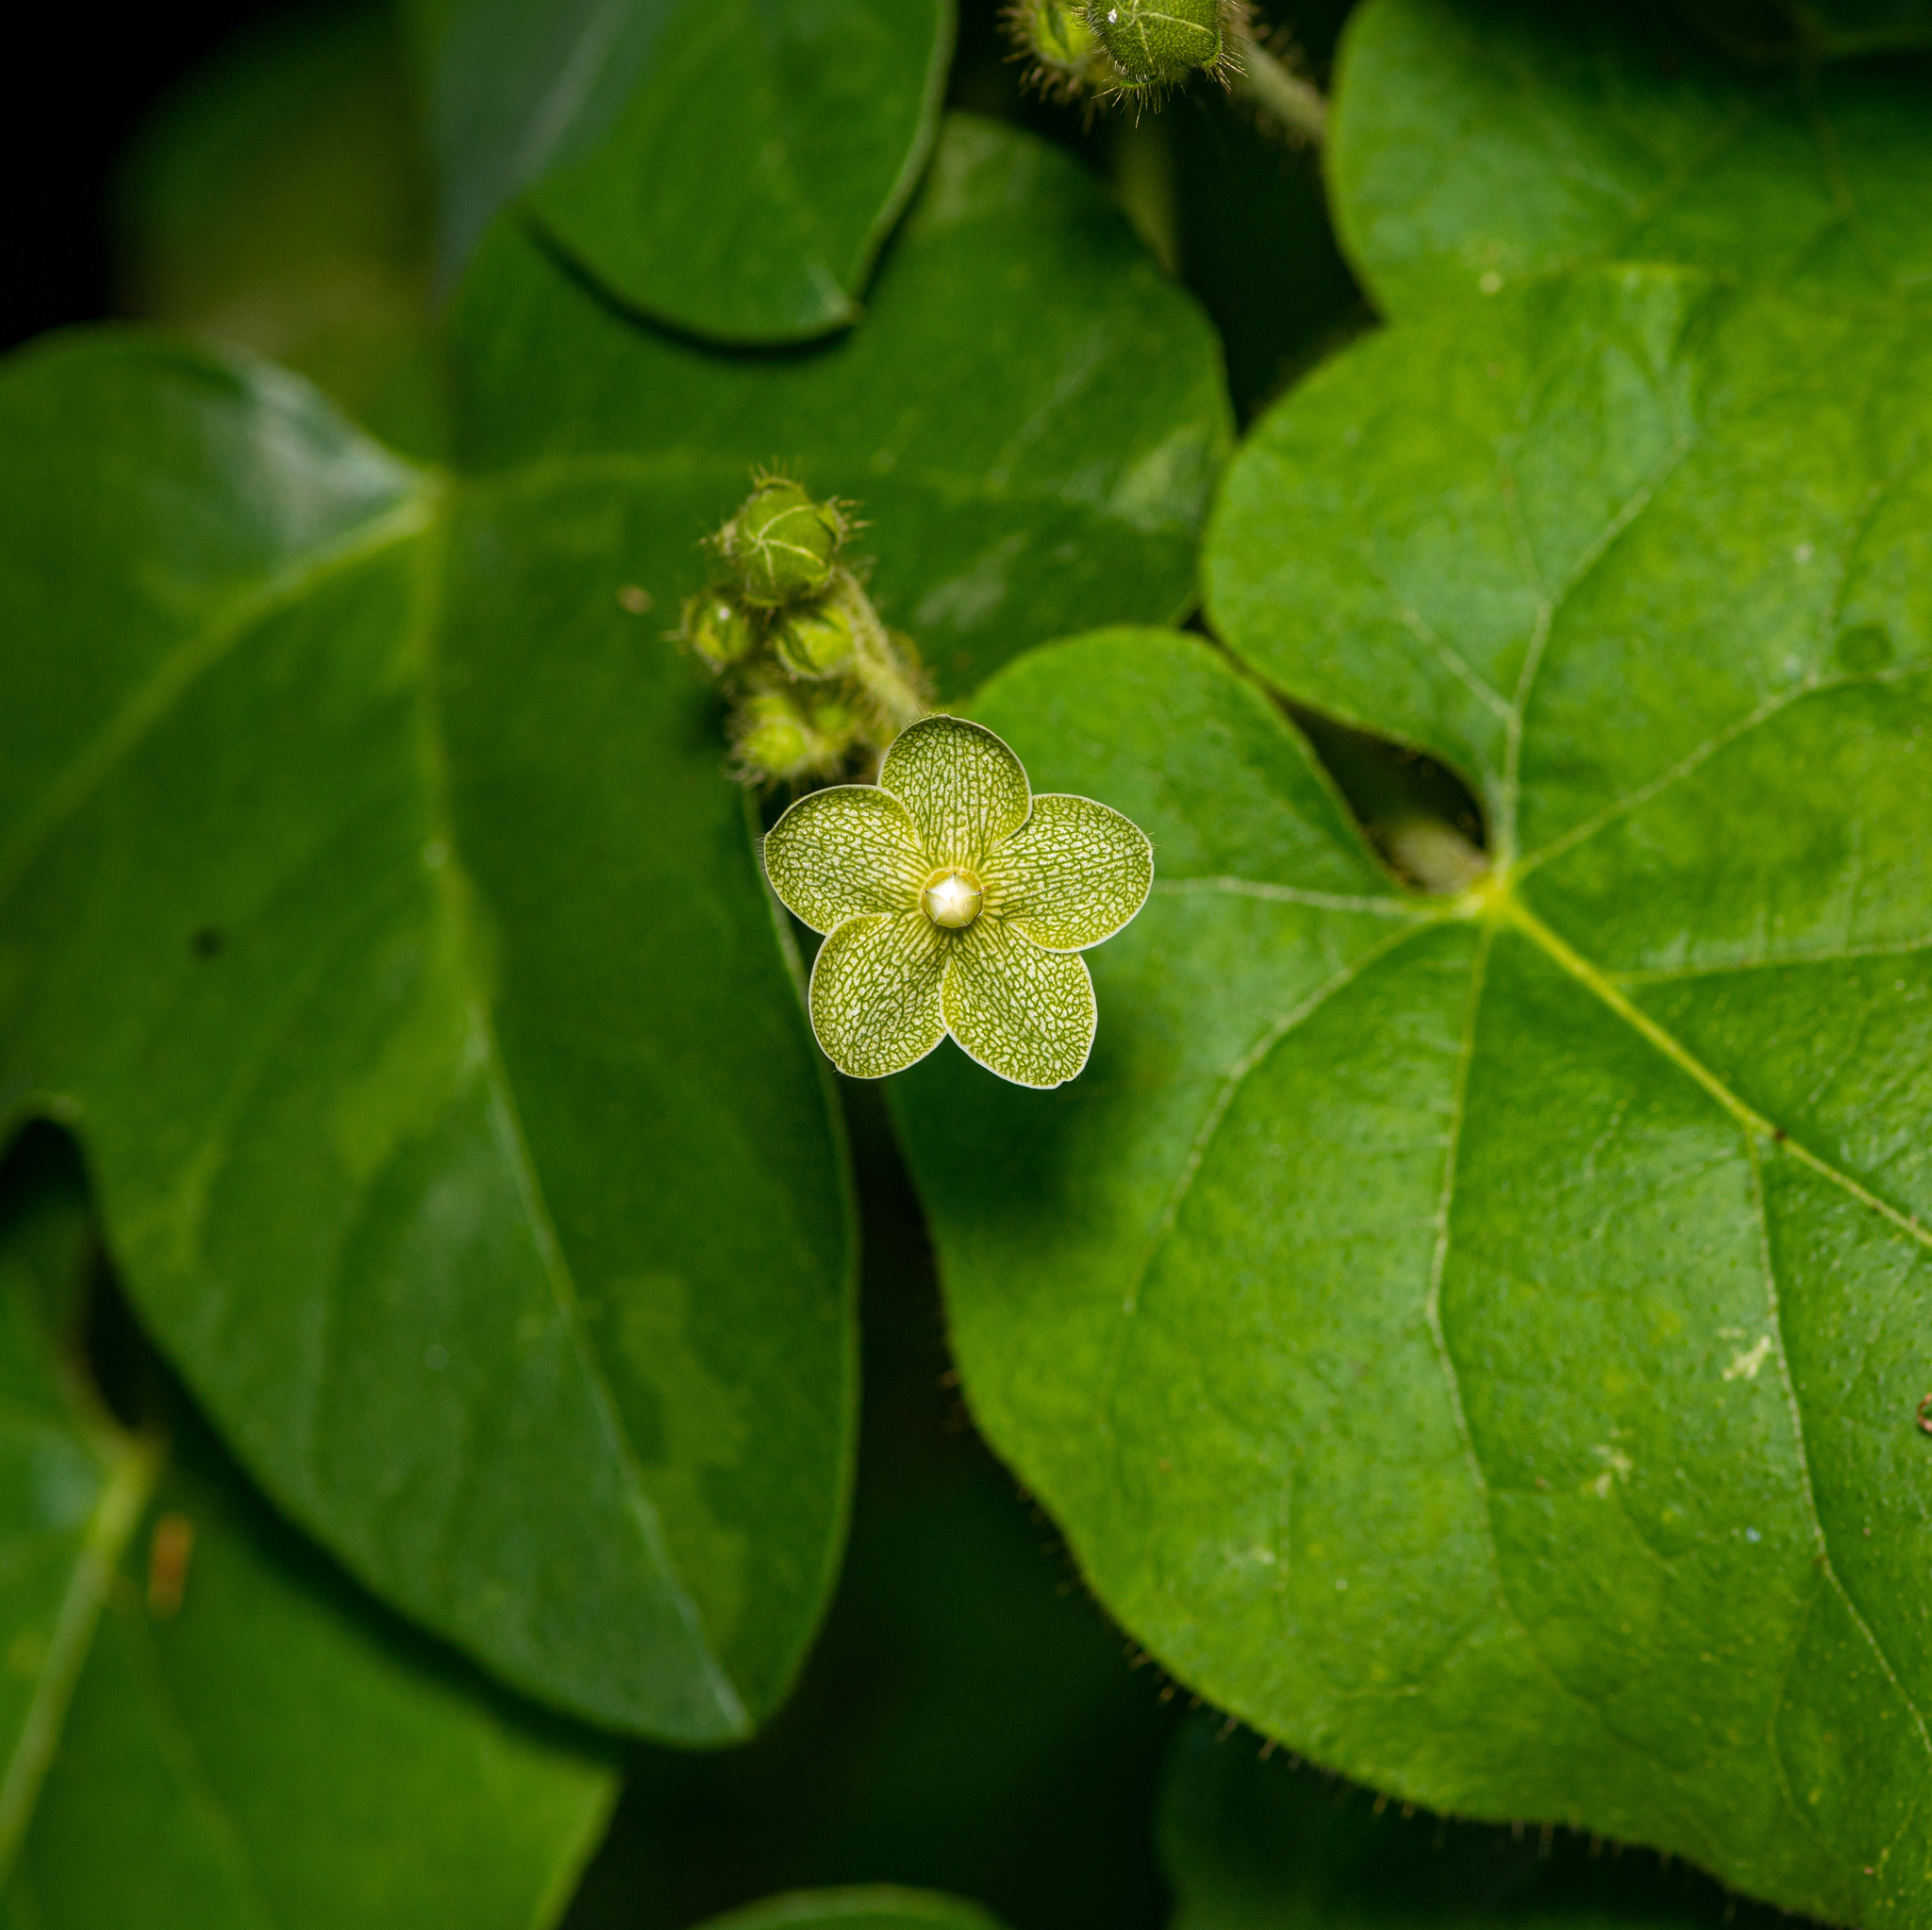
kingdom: Plantae
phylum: Tracheophyta
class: Magnoliopsida
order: Gentianales
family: Apocynaceae
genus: Dictyanthus
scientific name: Dictyanthus reticulatus
